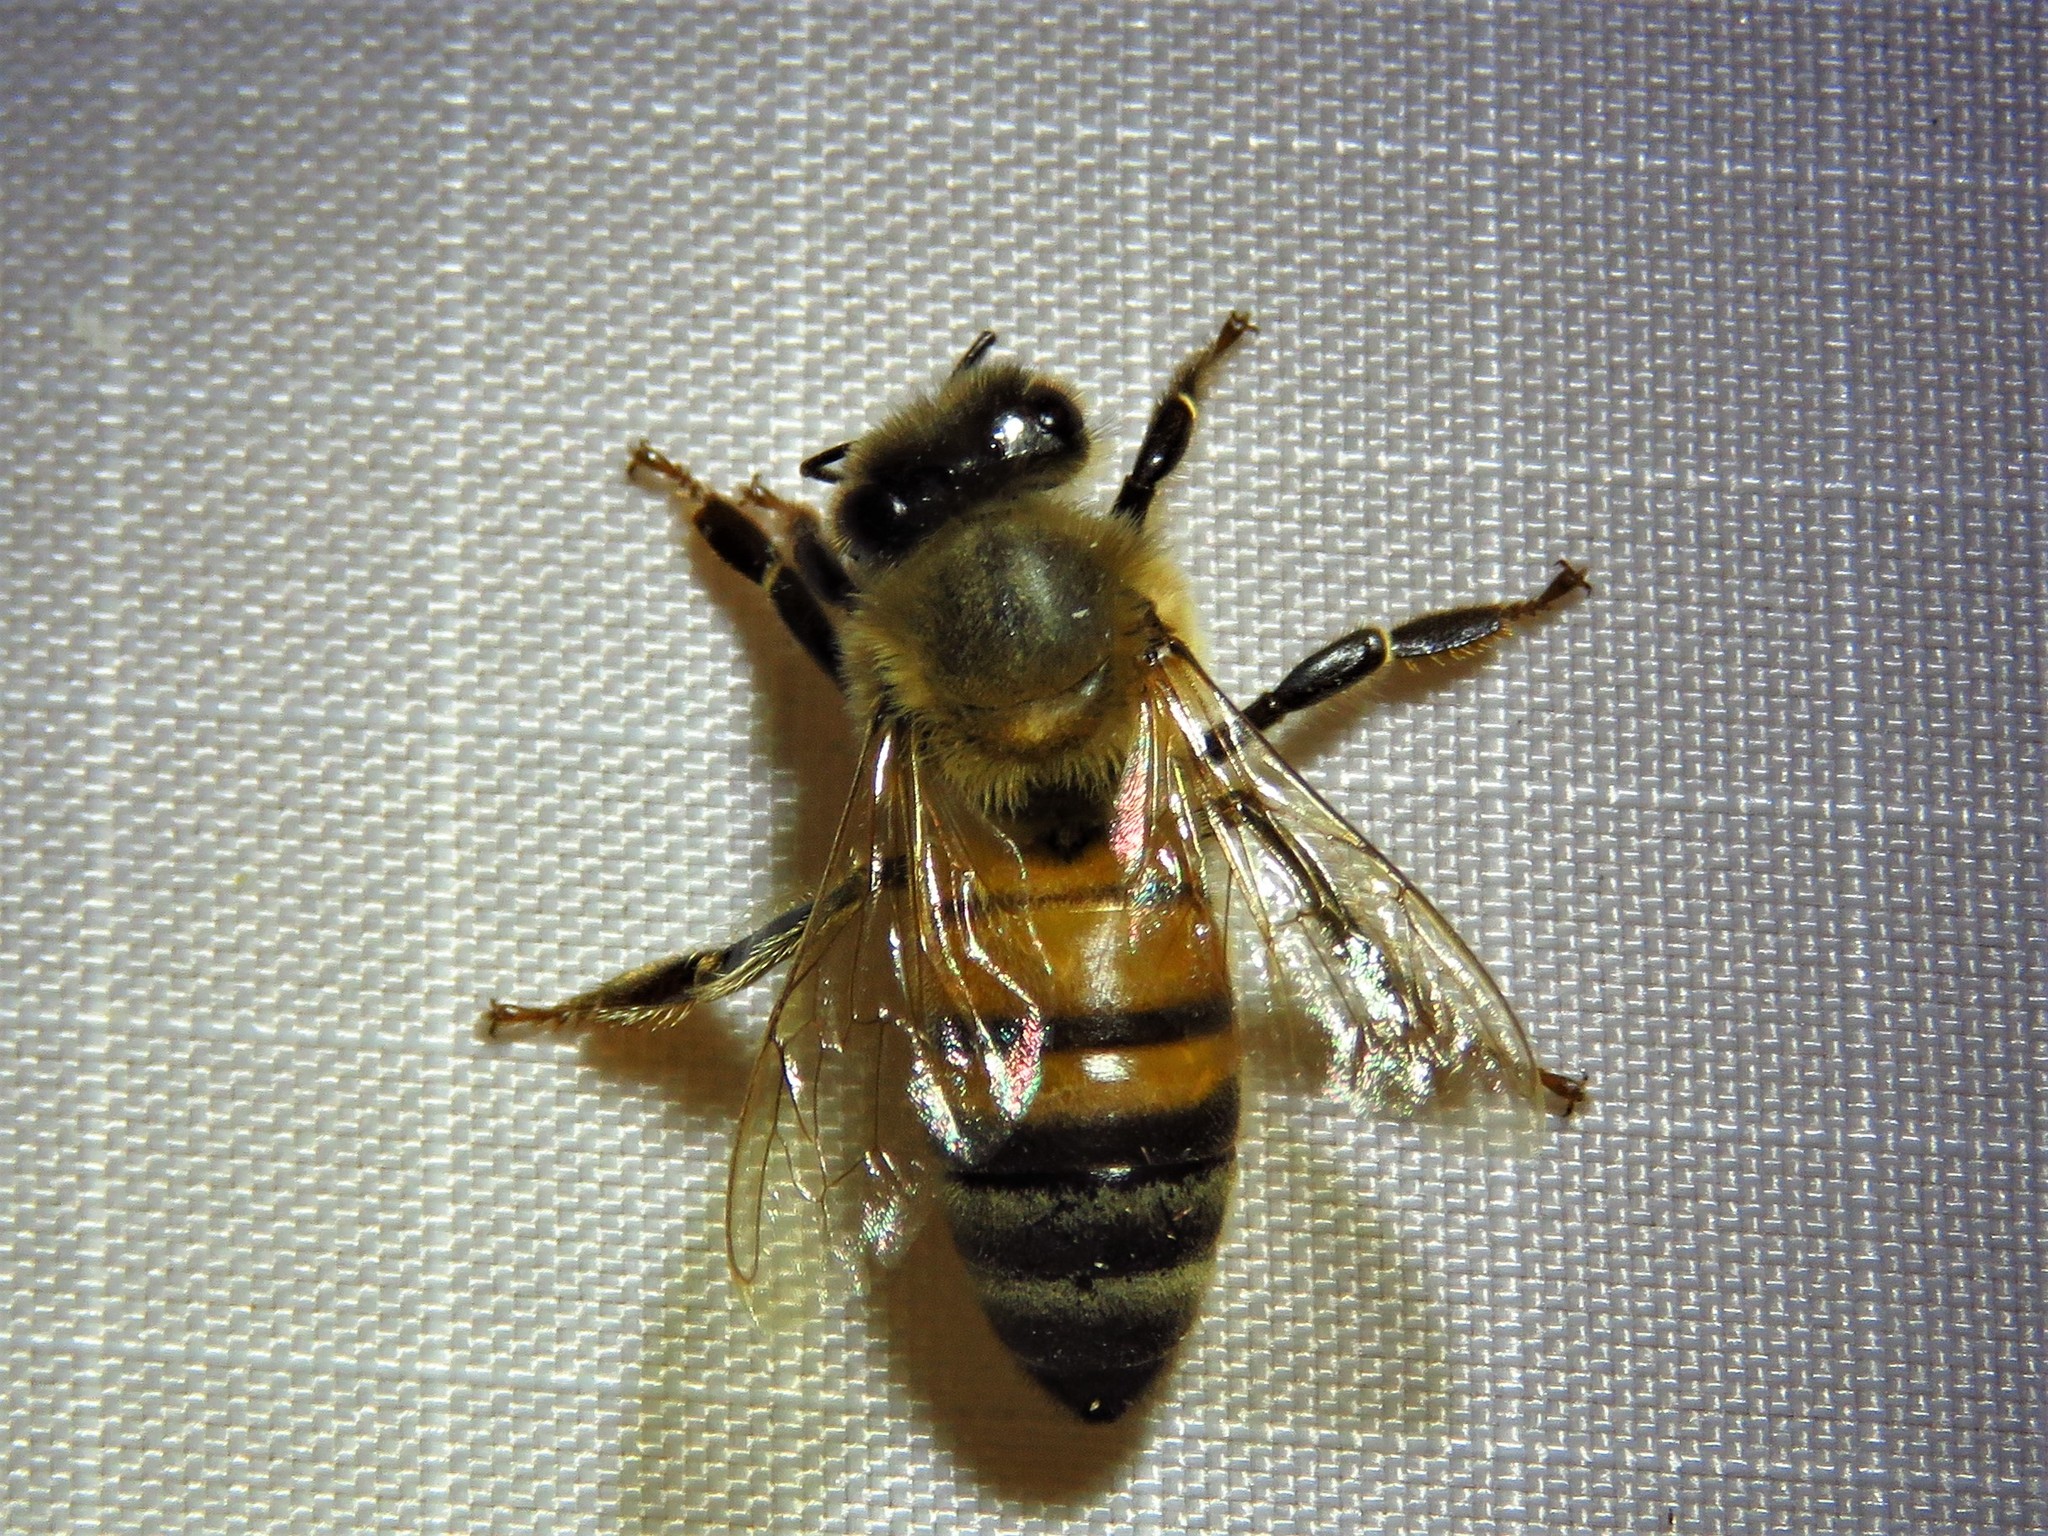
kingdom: Animalia
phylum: Arthropoda
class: Insecta
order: Hymenoptera
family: Apidae
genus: Apis
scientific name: Apis mellifera
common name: Honey bee
